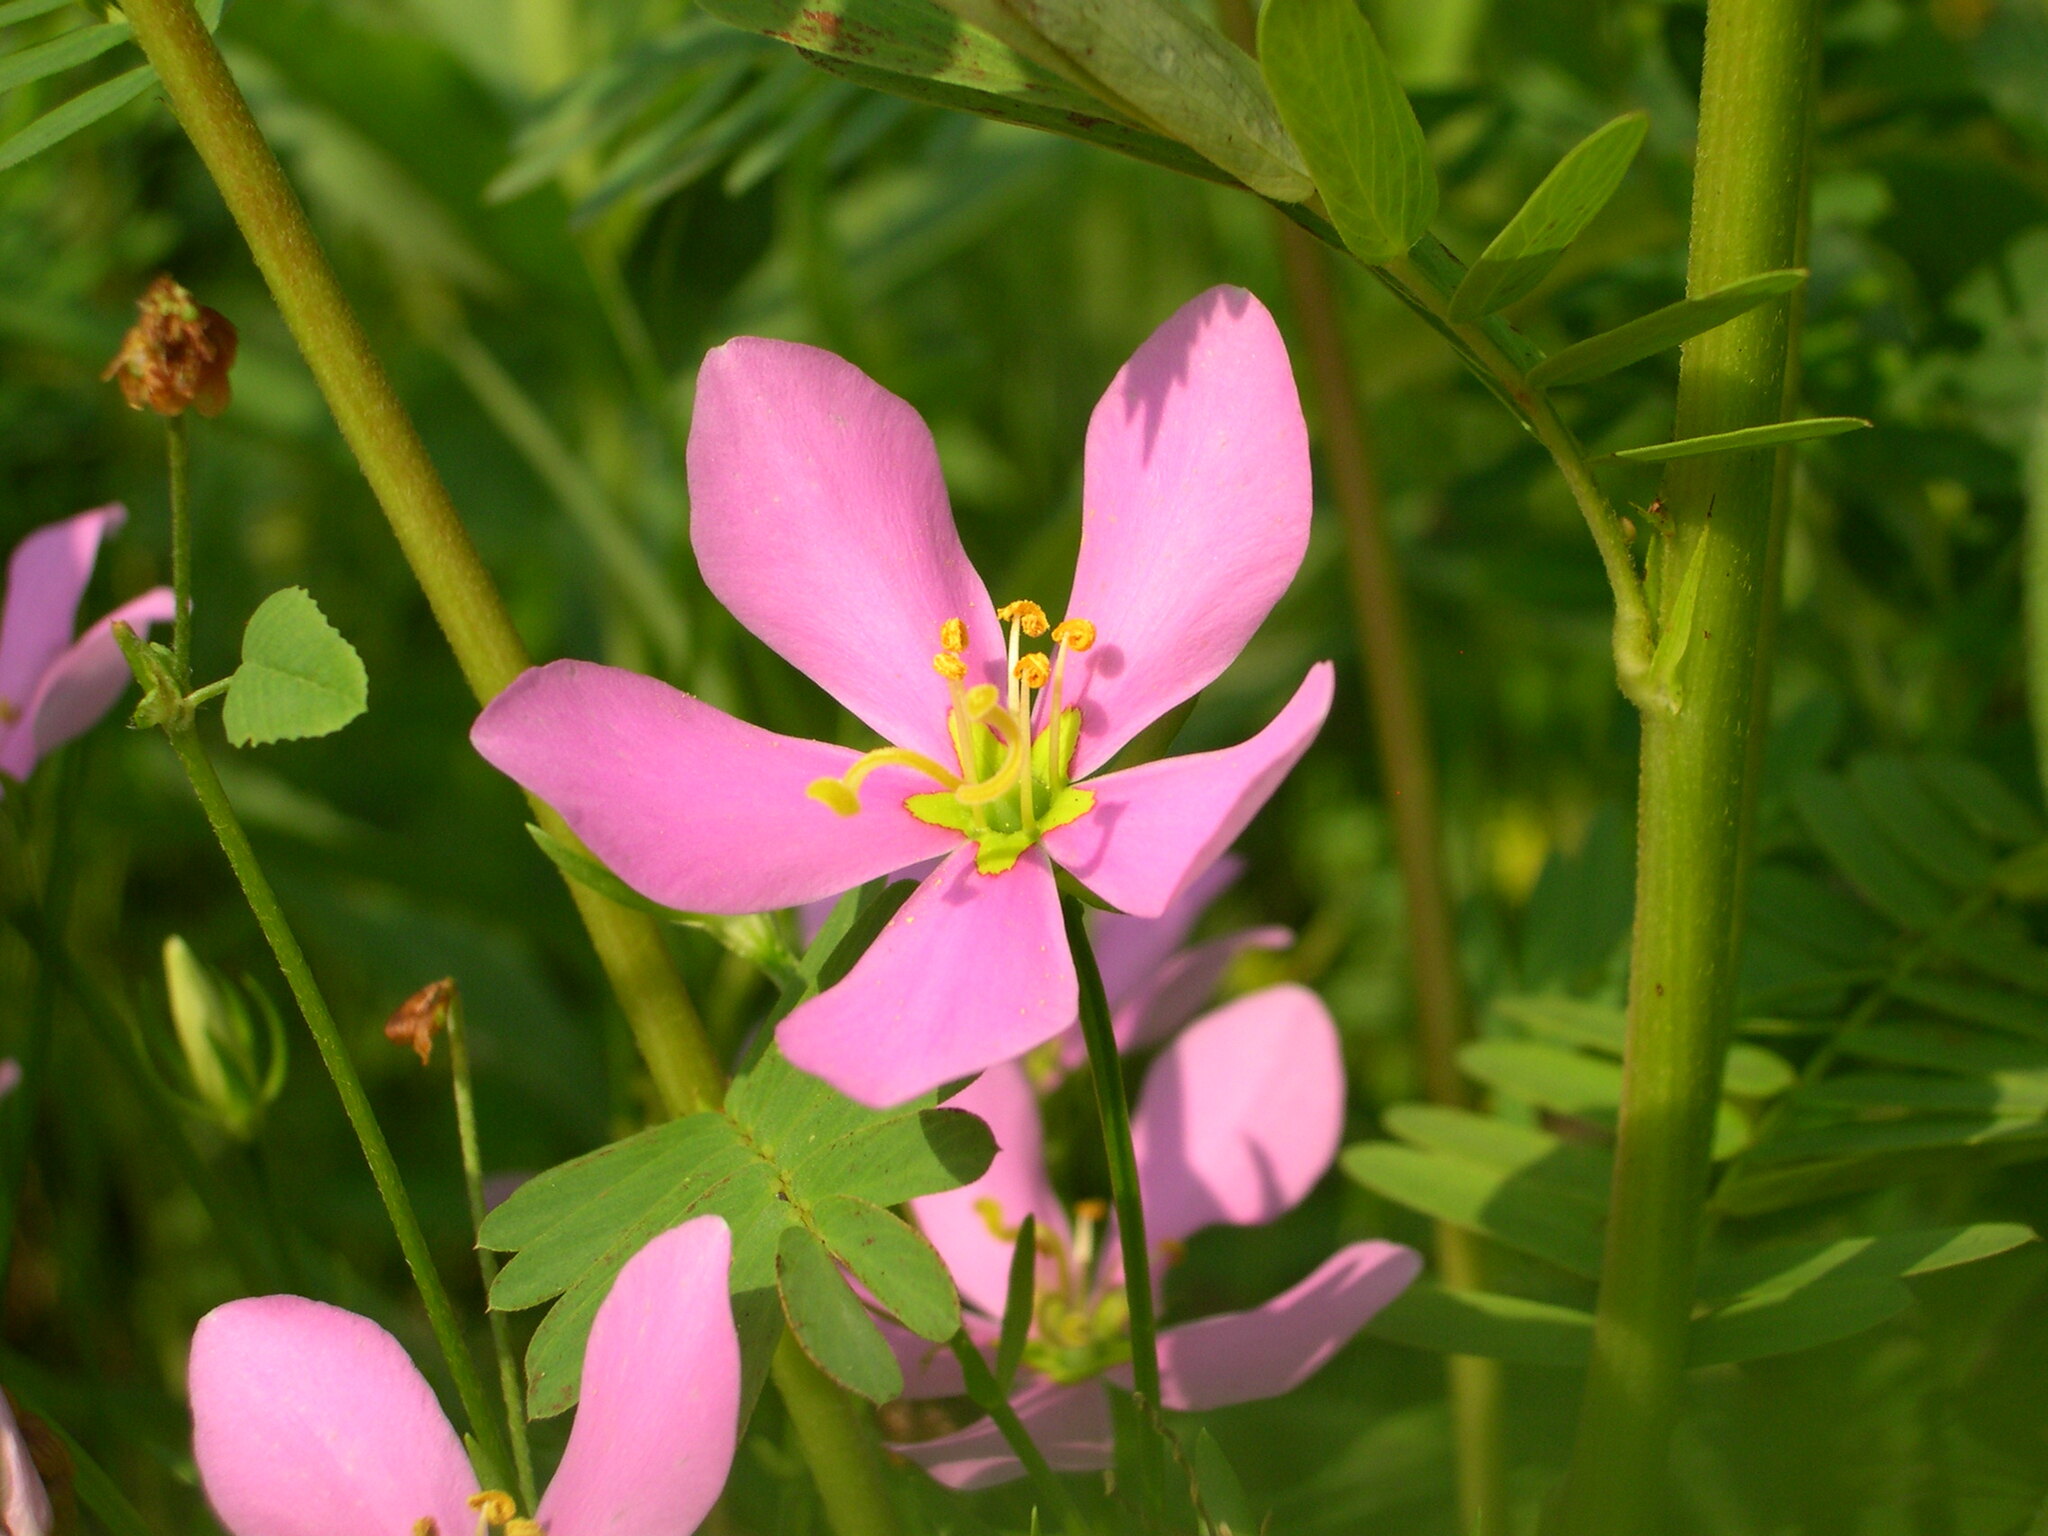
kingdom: Plantae
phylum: Tracheophyta
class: Magnoliopsida
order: Gentianales
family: Gentianaceae
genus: Sabatia
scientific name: Sabatia angularis
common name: Rose-pink
